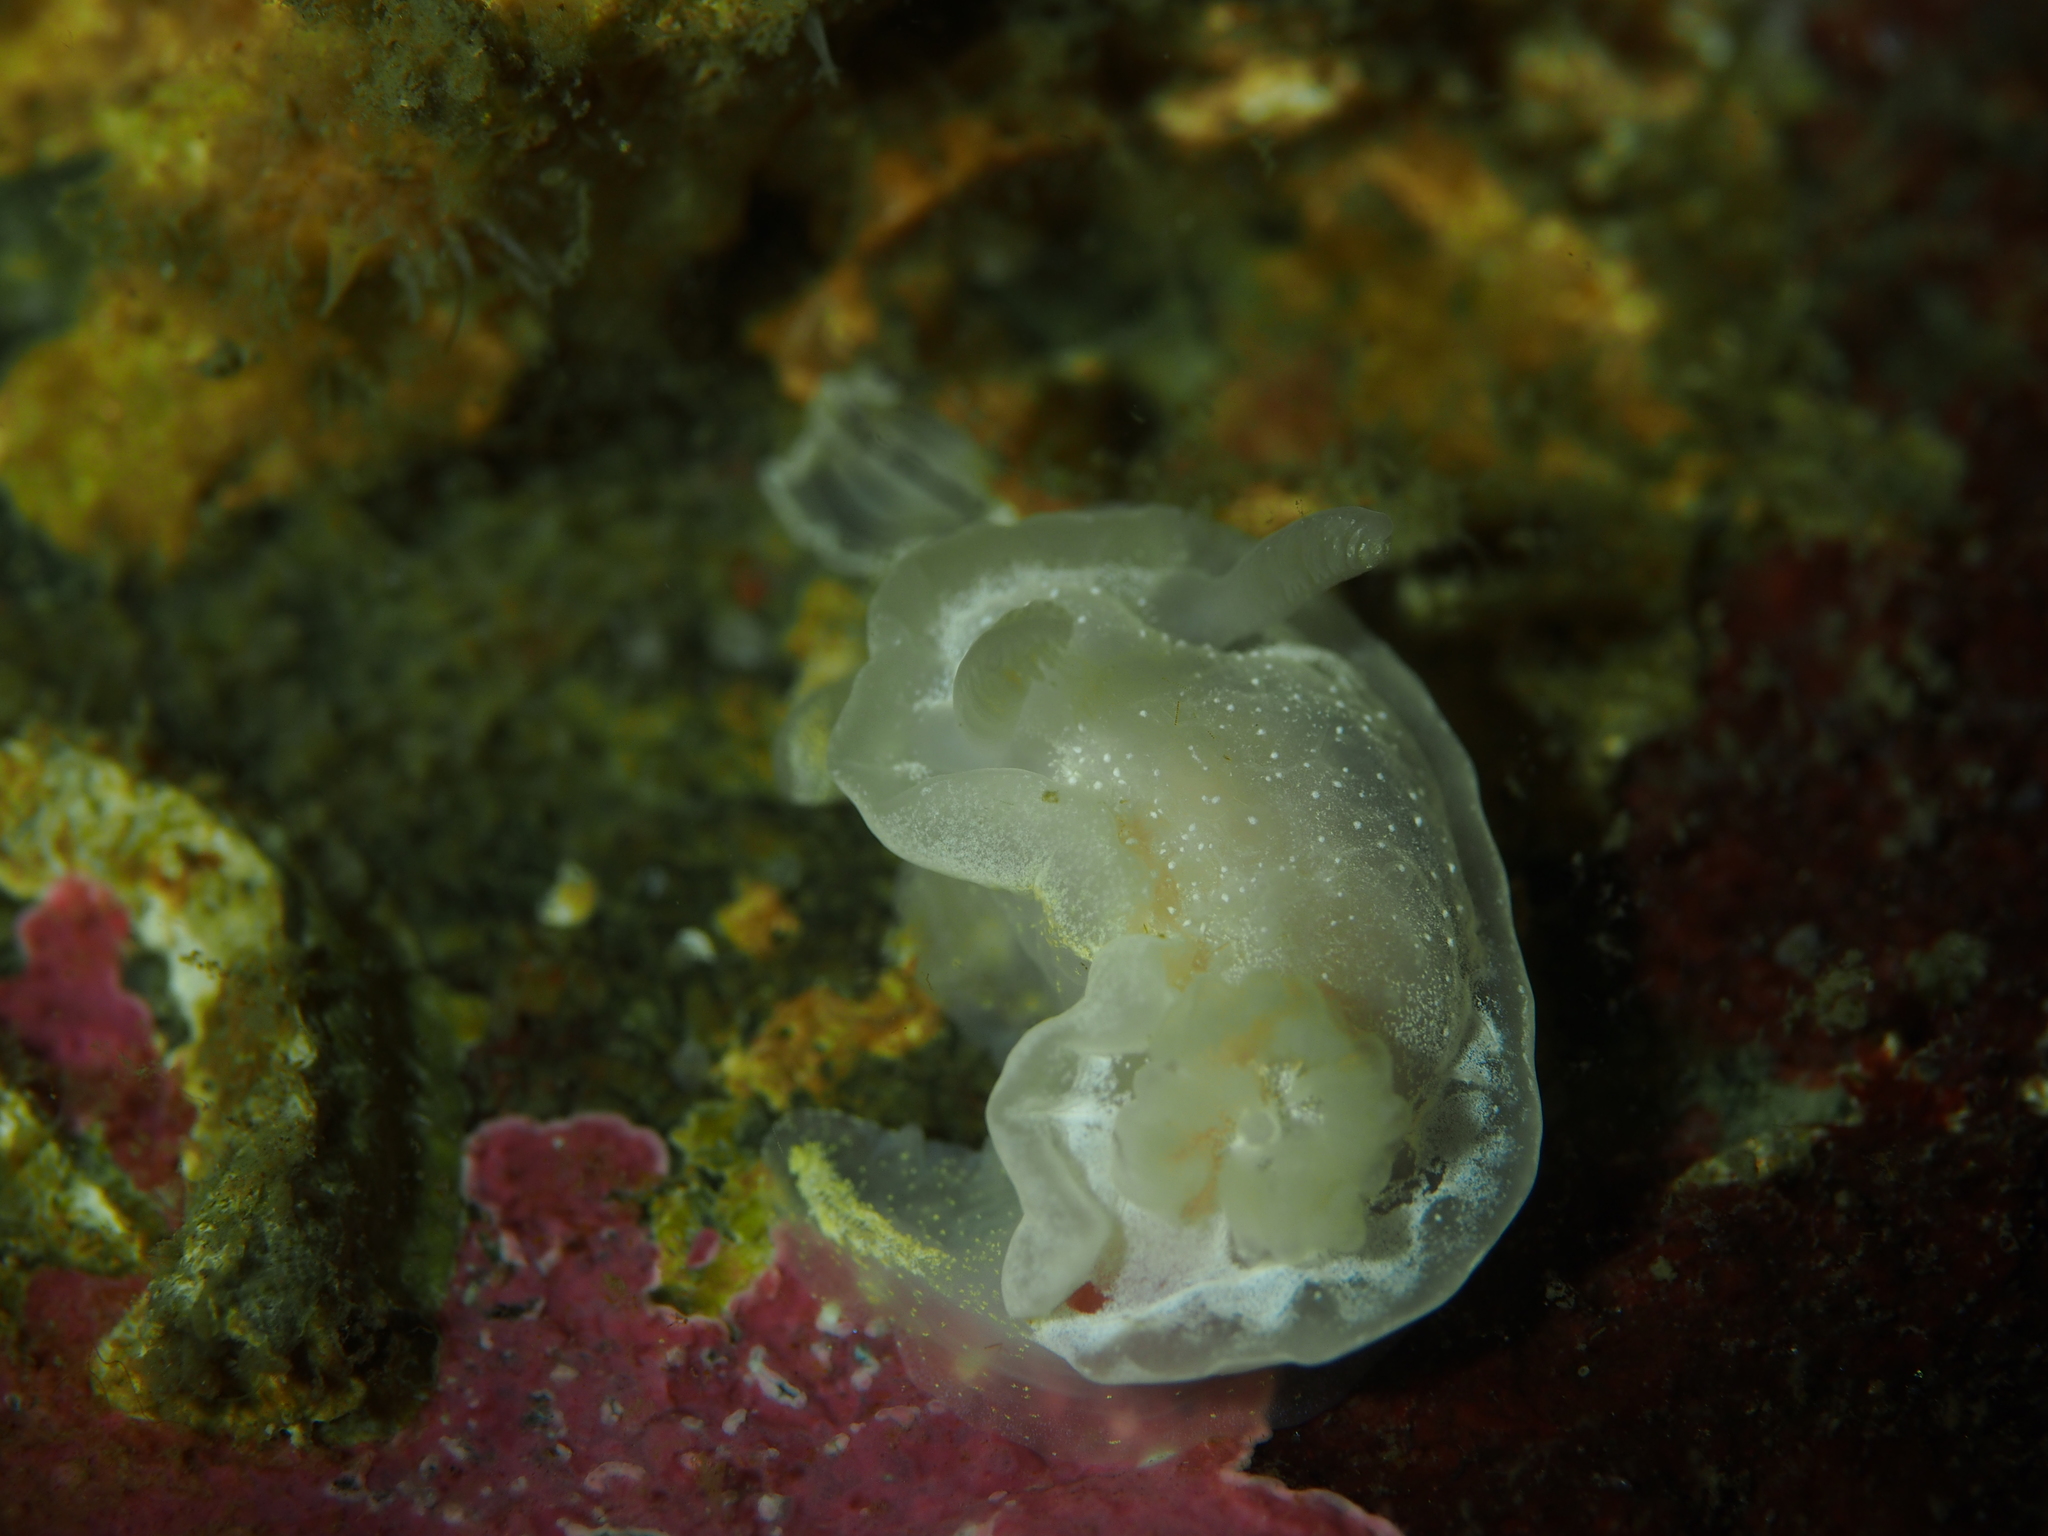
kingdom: Animalia
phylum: Mollusca
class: Gastropoda
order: Nudibranchia
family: Goniodorididae
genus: Okenia
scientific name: Okenia
